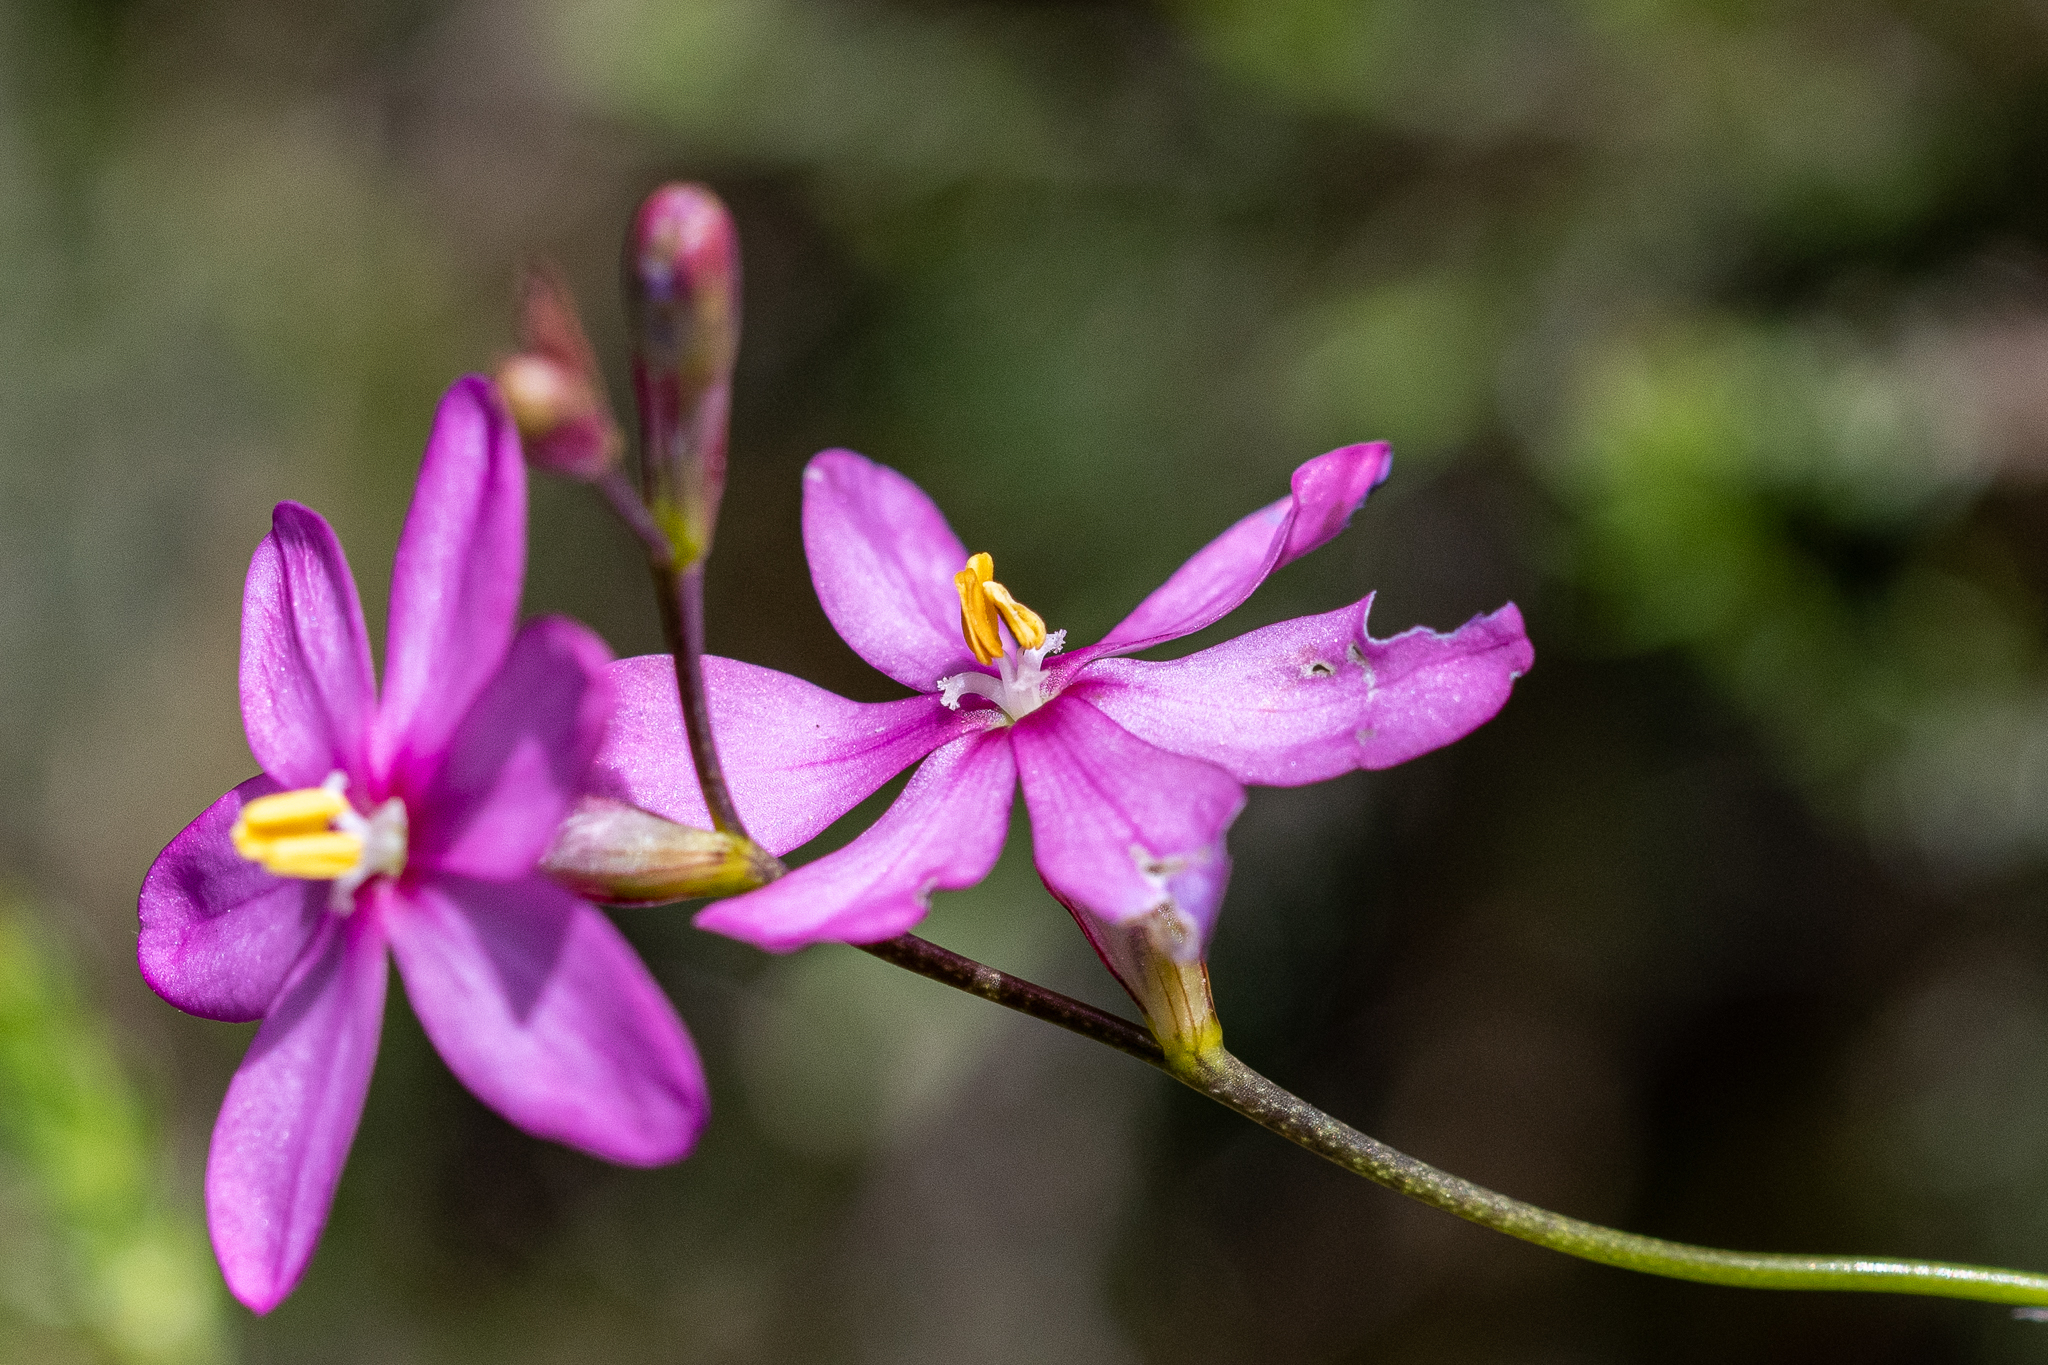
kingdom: Plantae
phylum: Tracheophyta
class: Liliopsida
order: Asparagales
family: Iridaceae
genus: Ixia
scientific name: Ixia stricta
